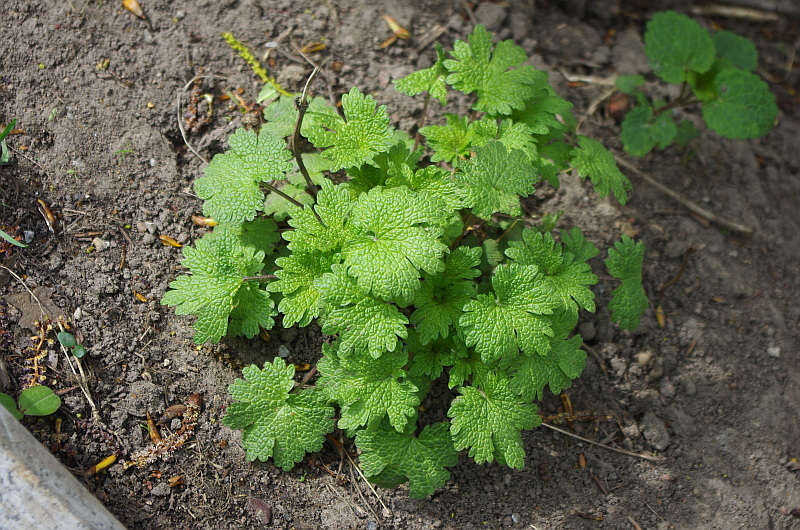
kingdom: Plantae
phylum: Tracheophyta
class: Magnoliopsida
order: Lamiales
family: Lamiaceae
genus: Leonurus
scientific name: Leonurus quinquelobatus
